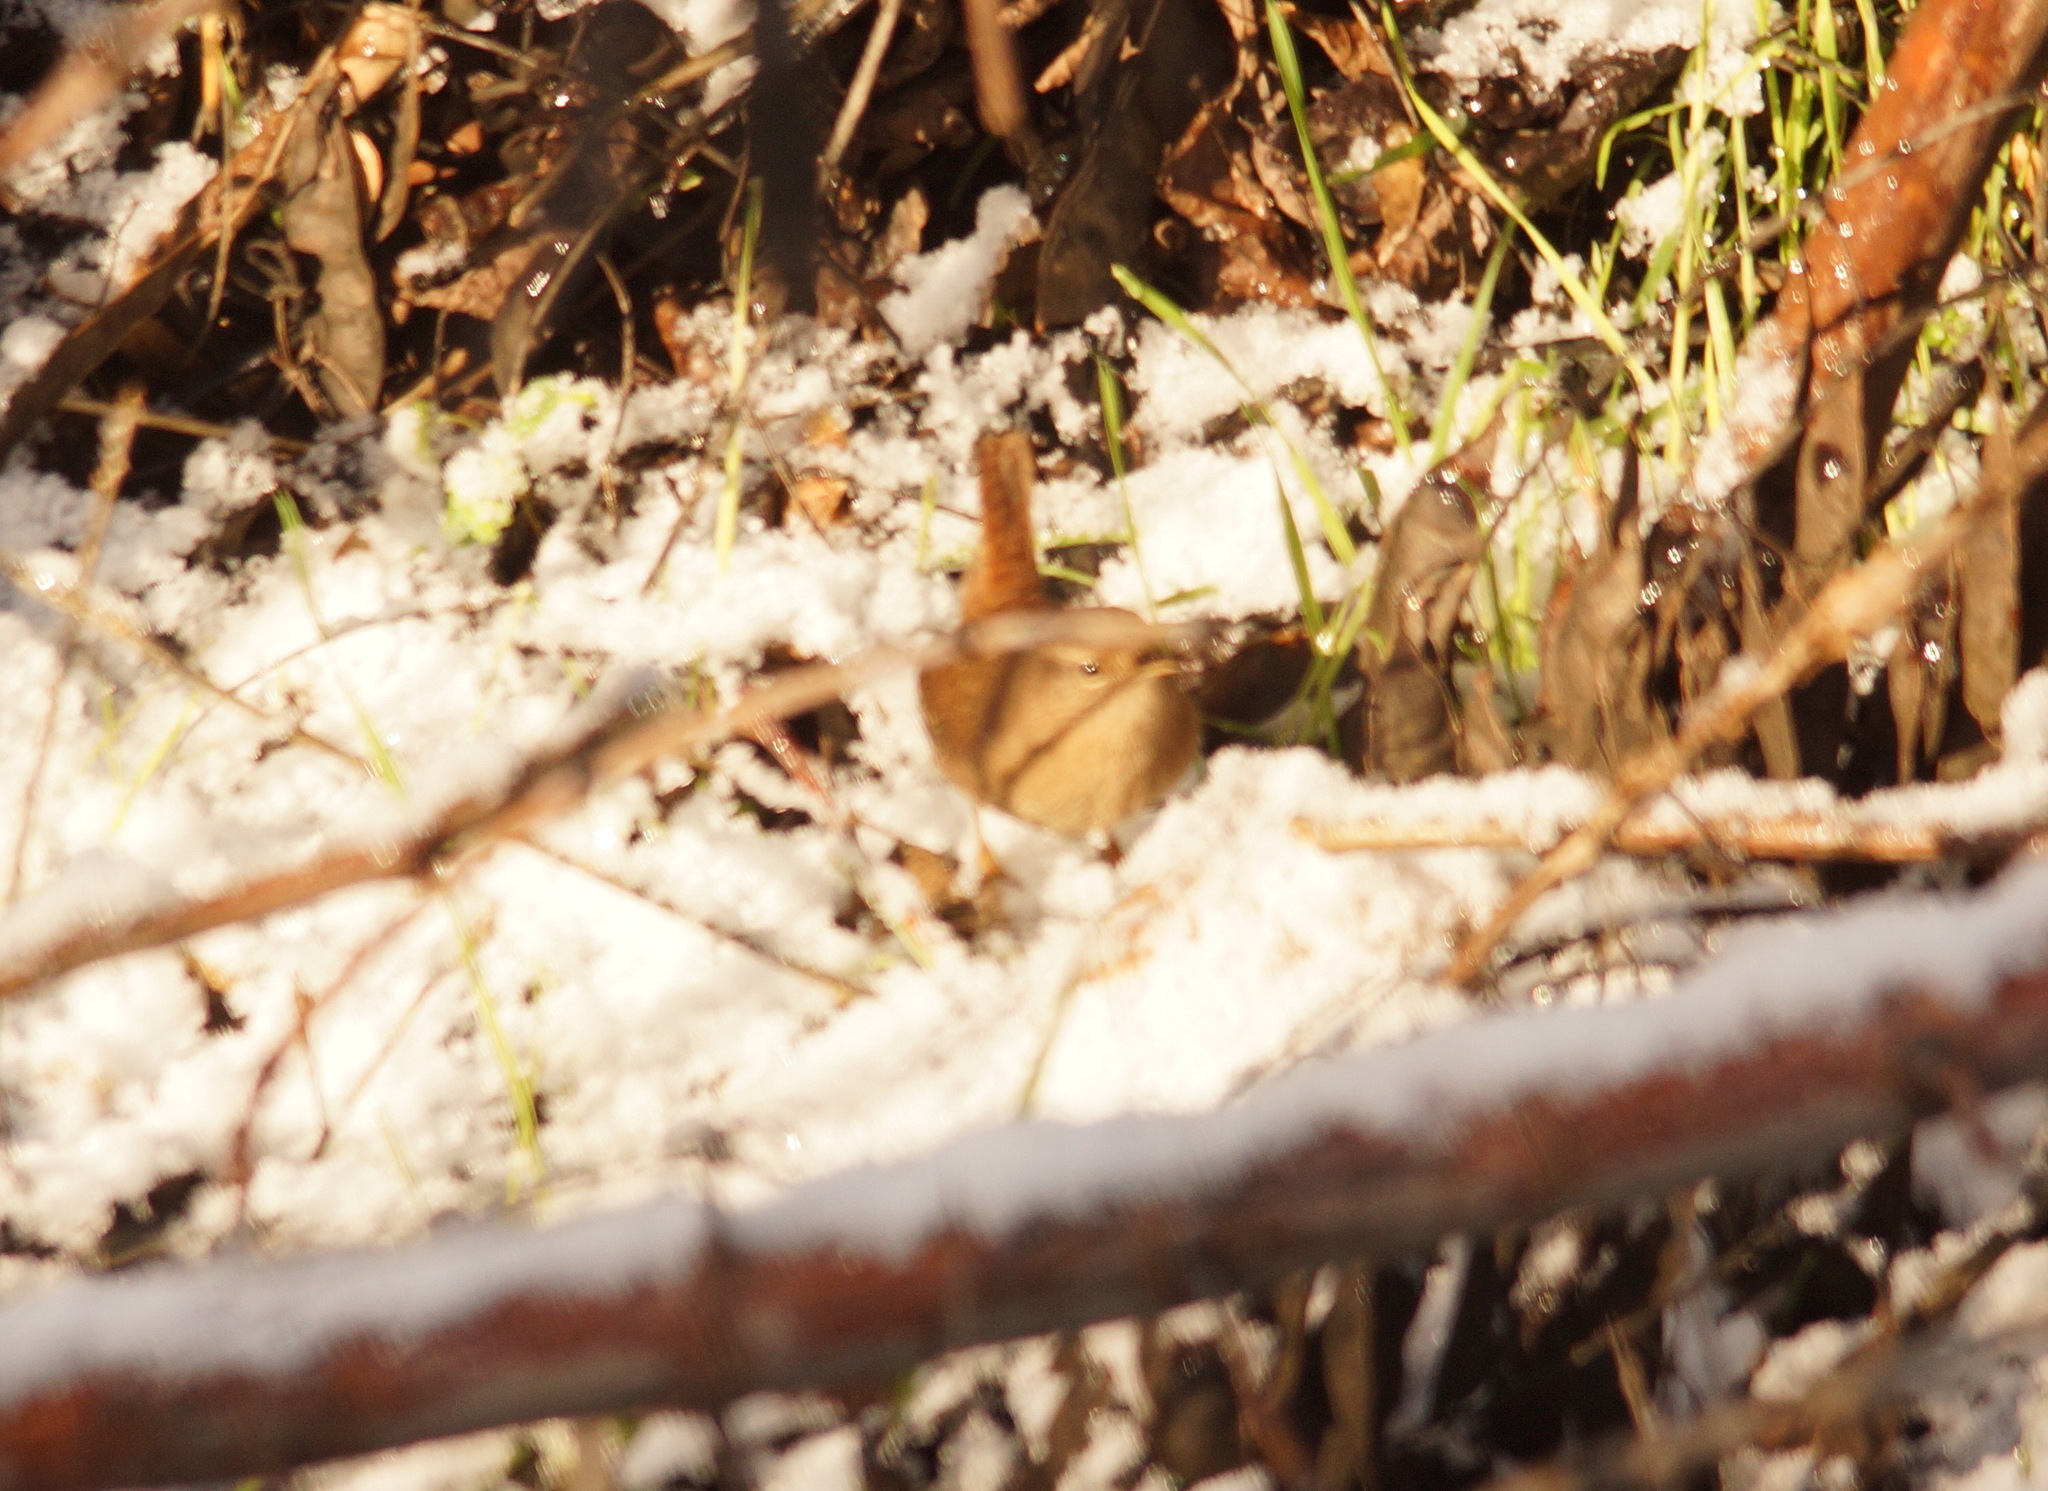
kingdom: Animalia
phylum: Chordata
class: Aves
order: Passeriformes
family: Troglodytidae
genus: Troglodytes
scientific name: Troglodytes troglodytes
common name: Eurasian wren
